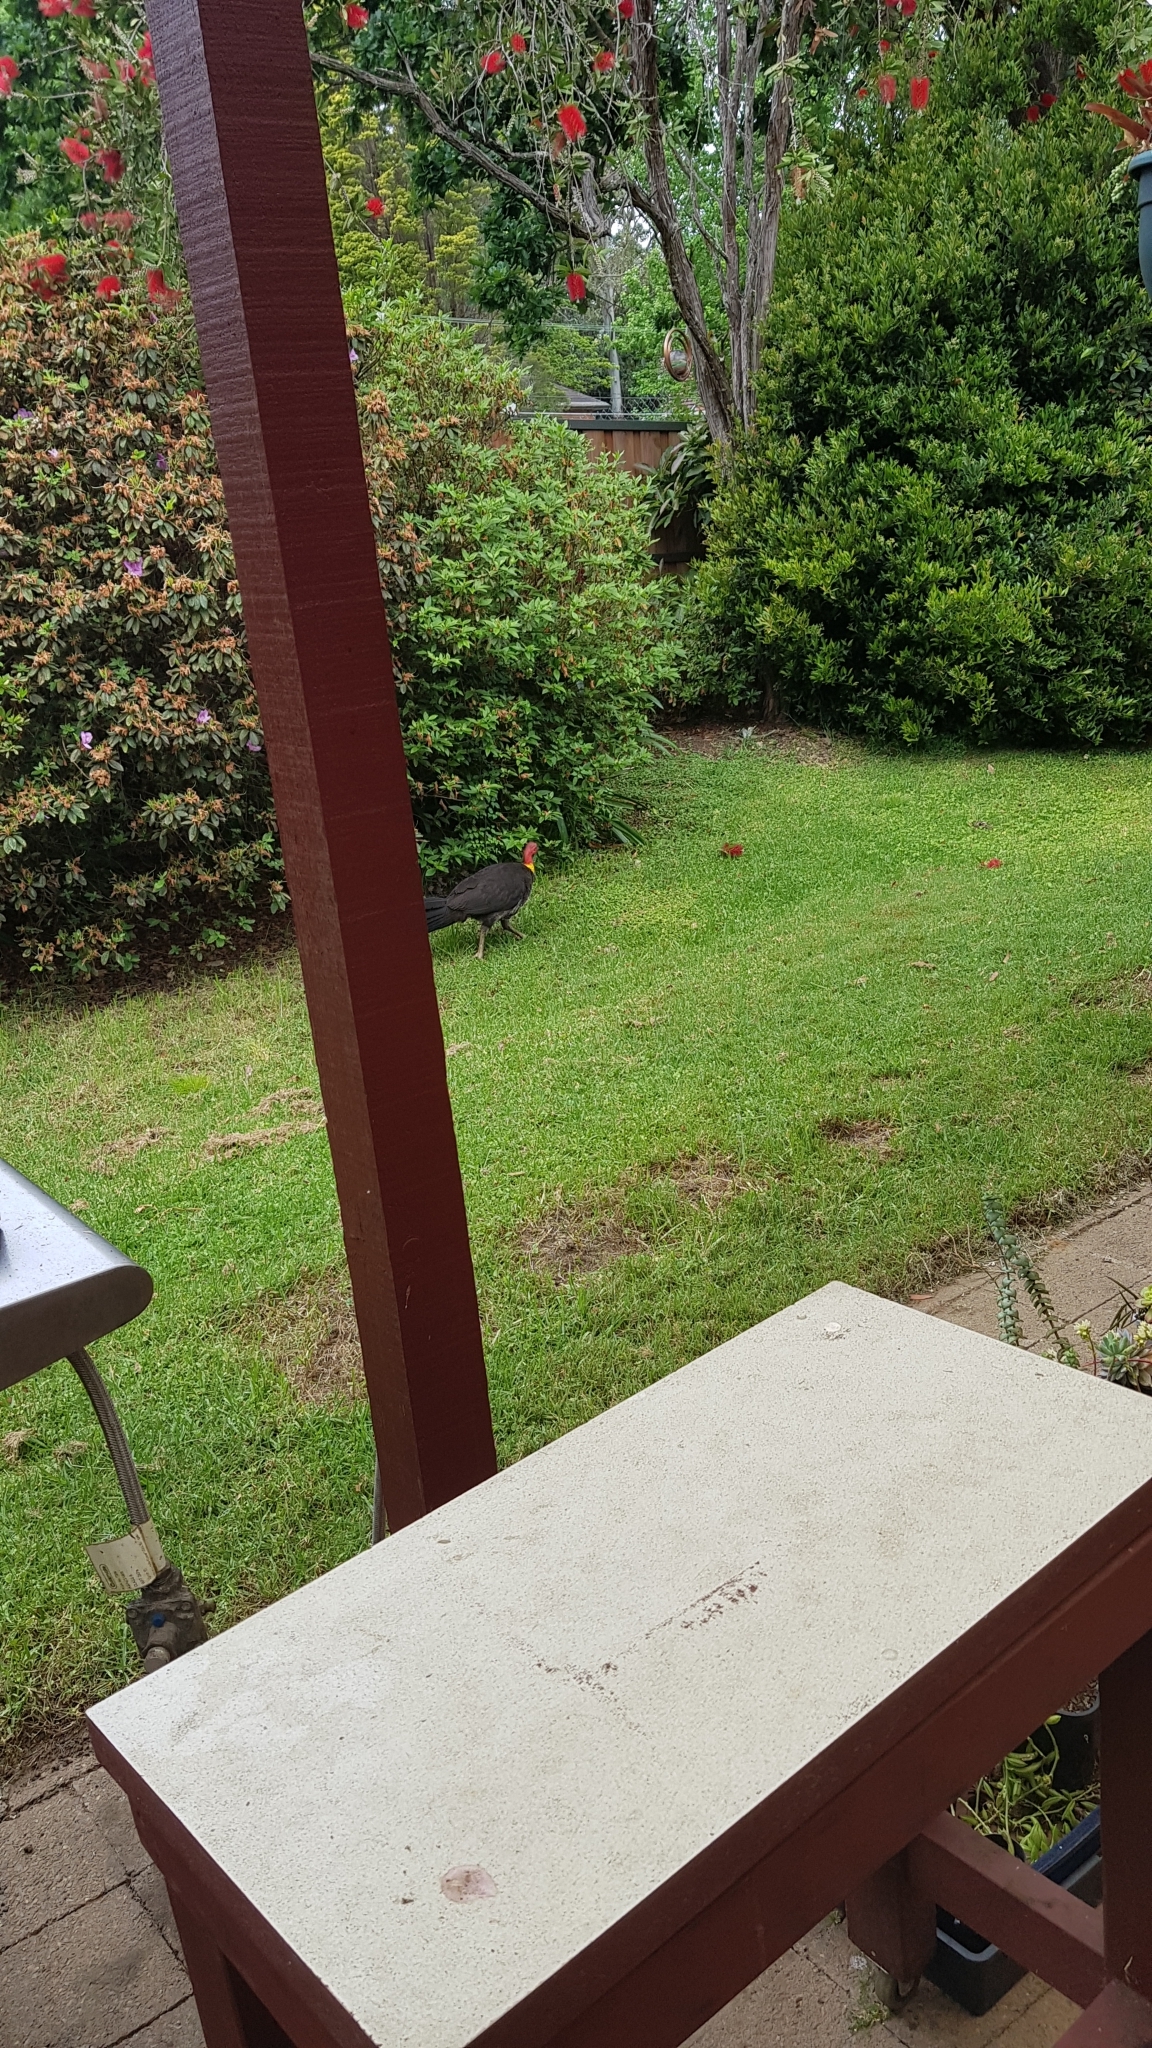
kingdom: Animalia
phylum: Chordata
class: Aves
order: Galliformes
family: Megapodiidae
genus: Alectura
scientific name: Alectura lathami
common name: Australian brushturkey
